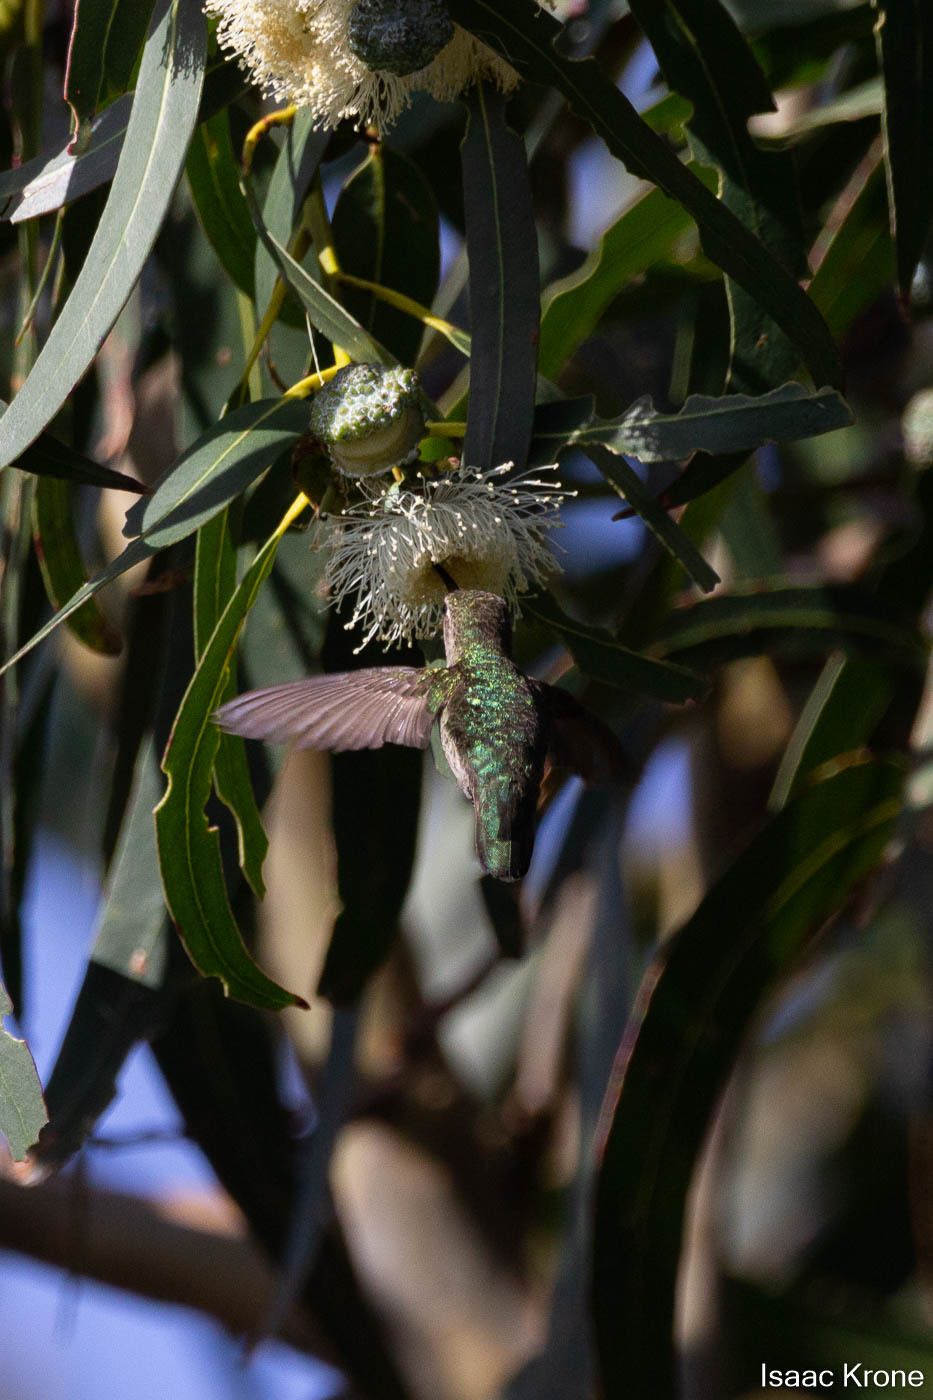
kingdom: Animalia
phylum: Chordata
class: Aves
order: Apodiformes
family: Trochilidae
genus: Calypte
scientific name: Calypte anna
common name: Anna's hummingbird
